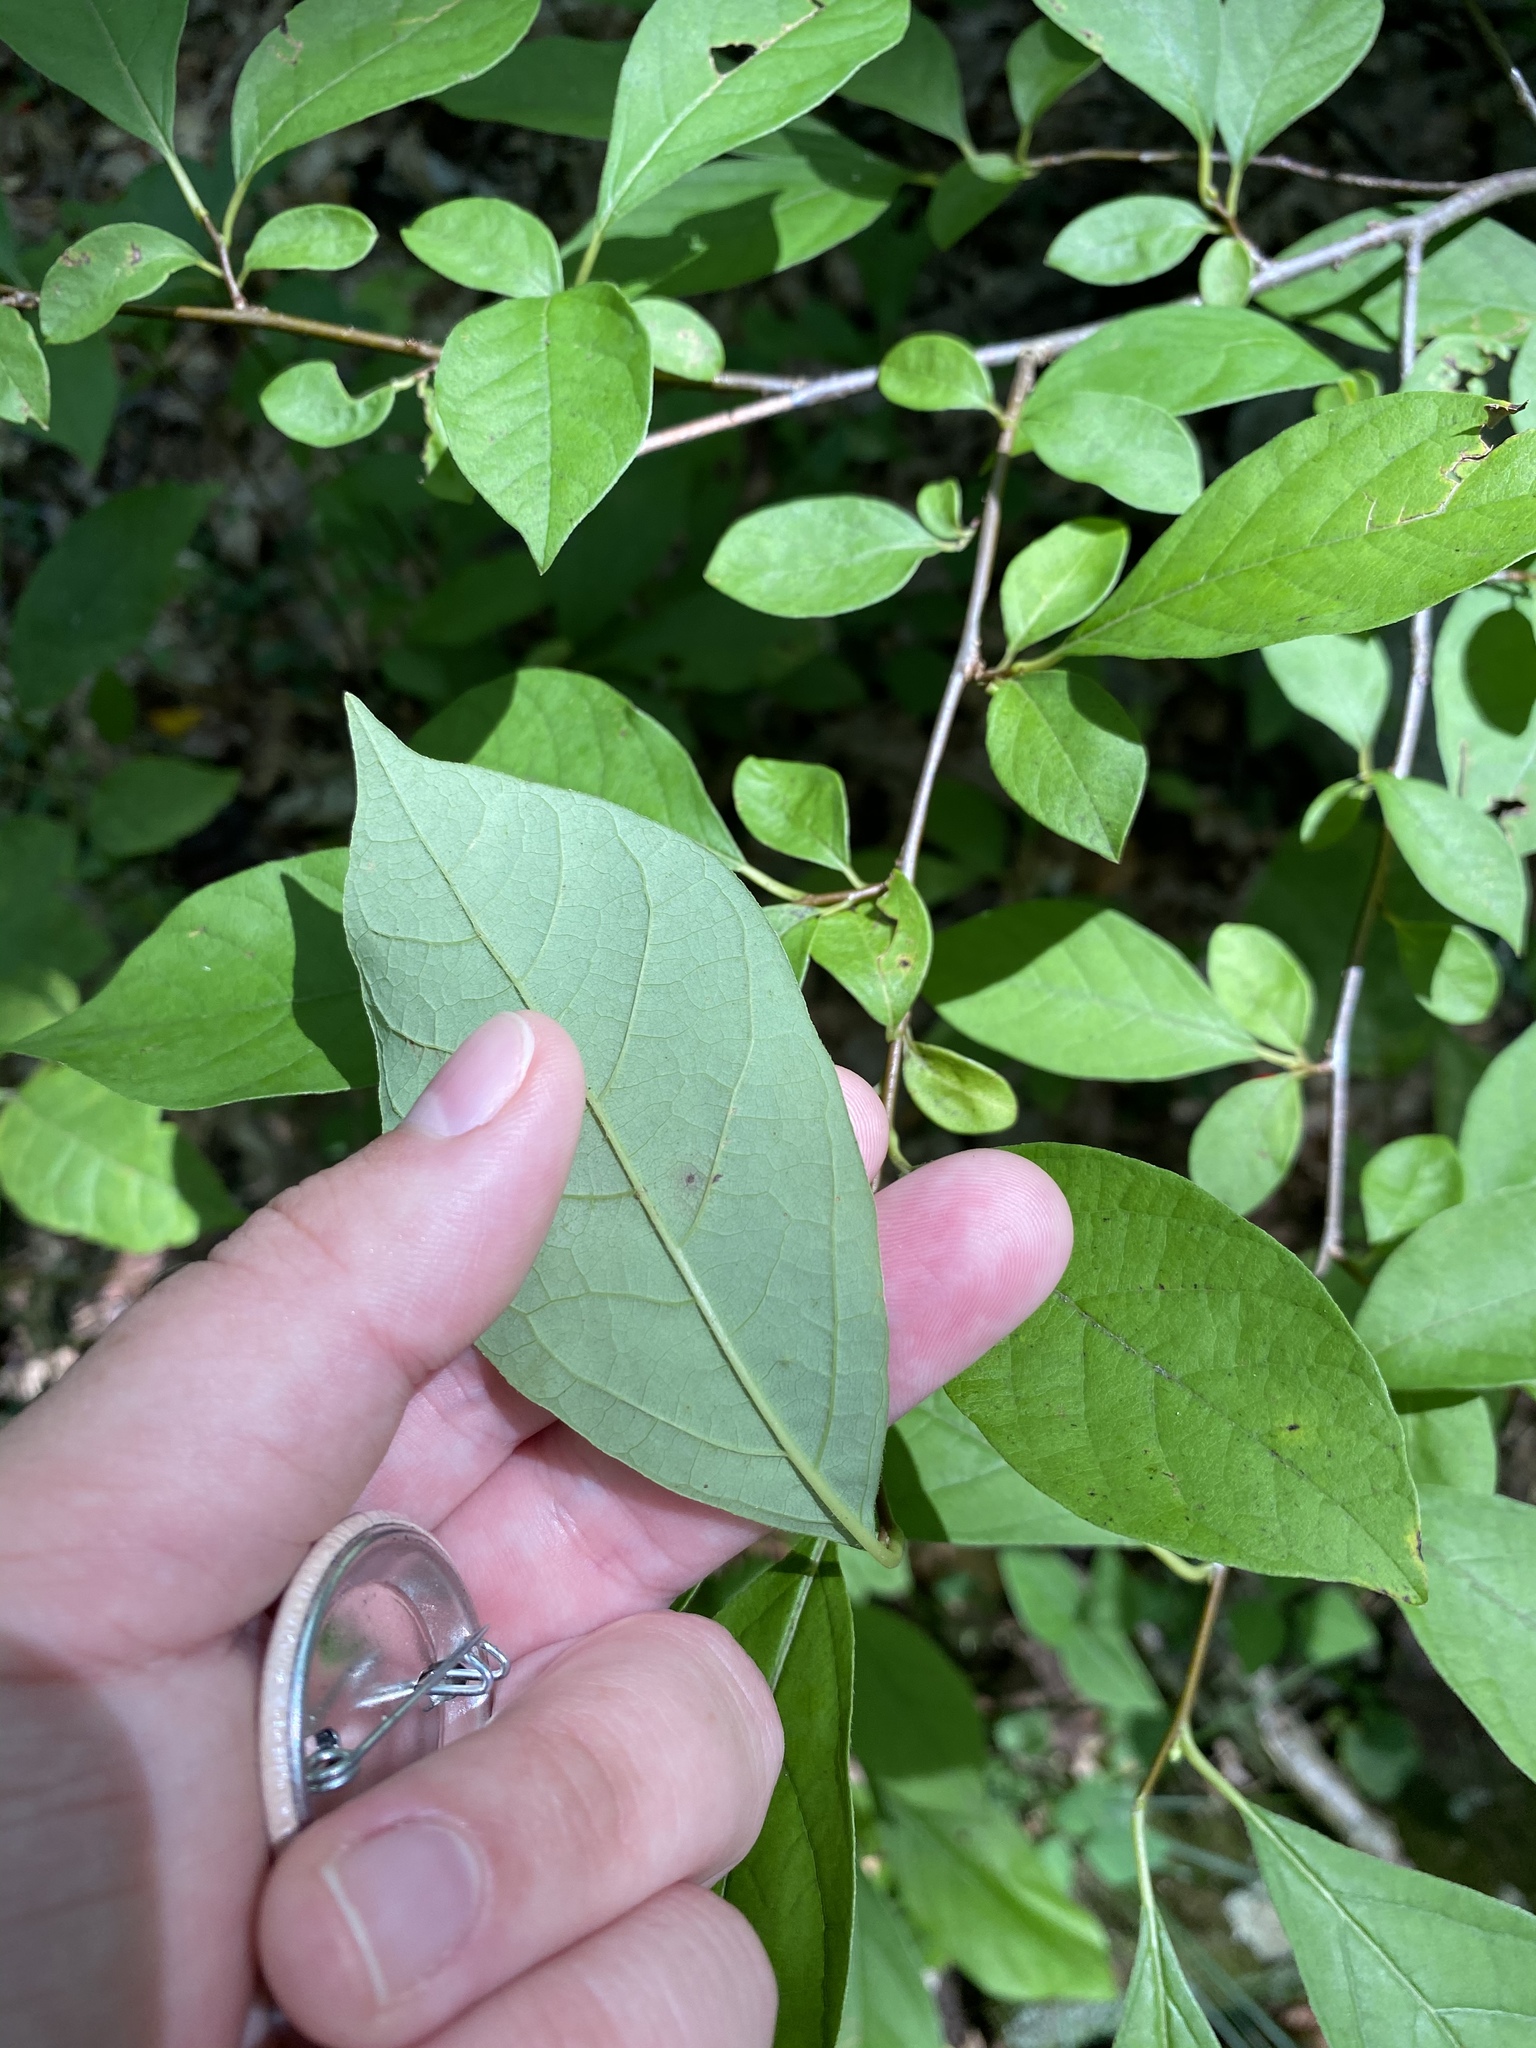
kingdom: Plantae
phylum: Tracheophyta
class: Magnoliopsida
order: Laurales
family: Lauraceae
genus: Lindera
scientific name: Lindera benzoin
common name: Spicebush
